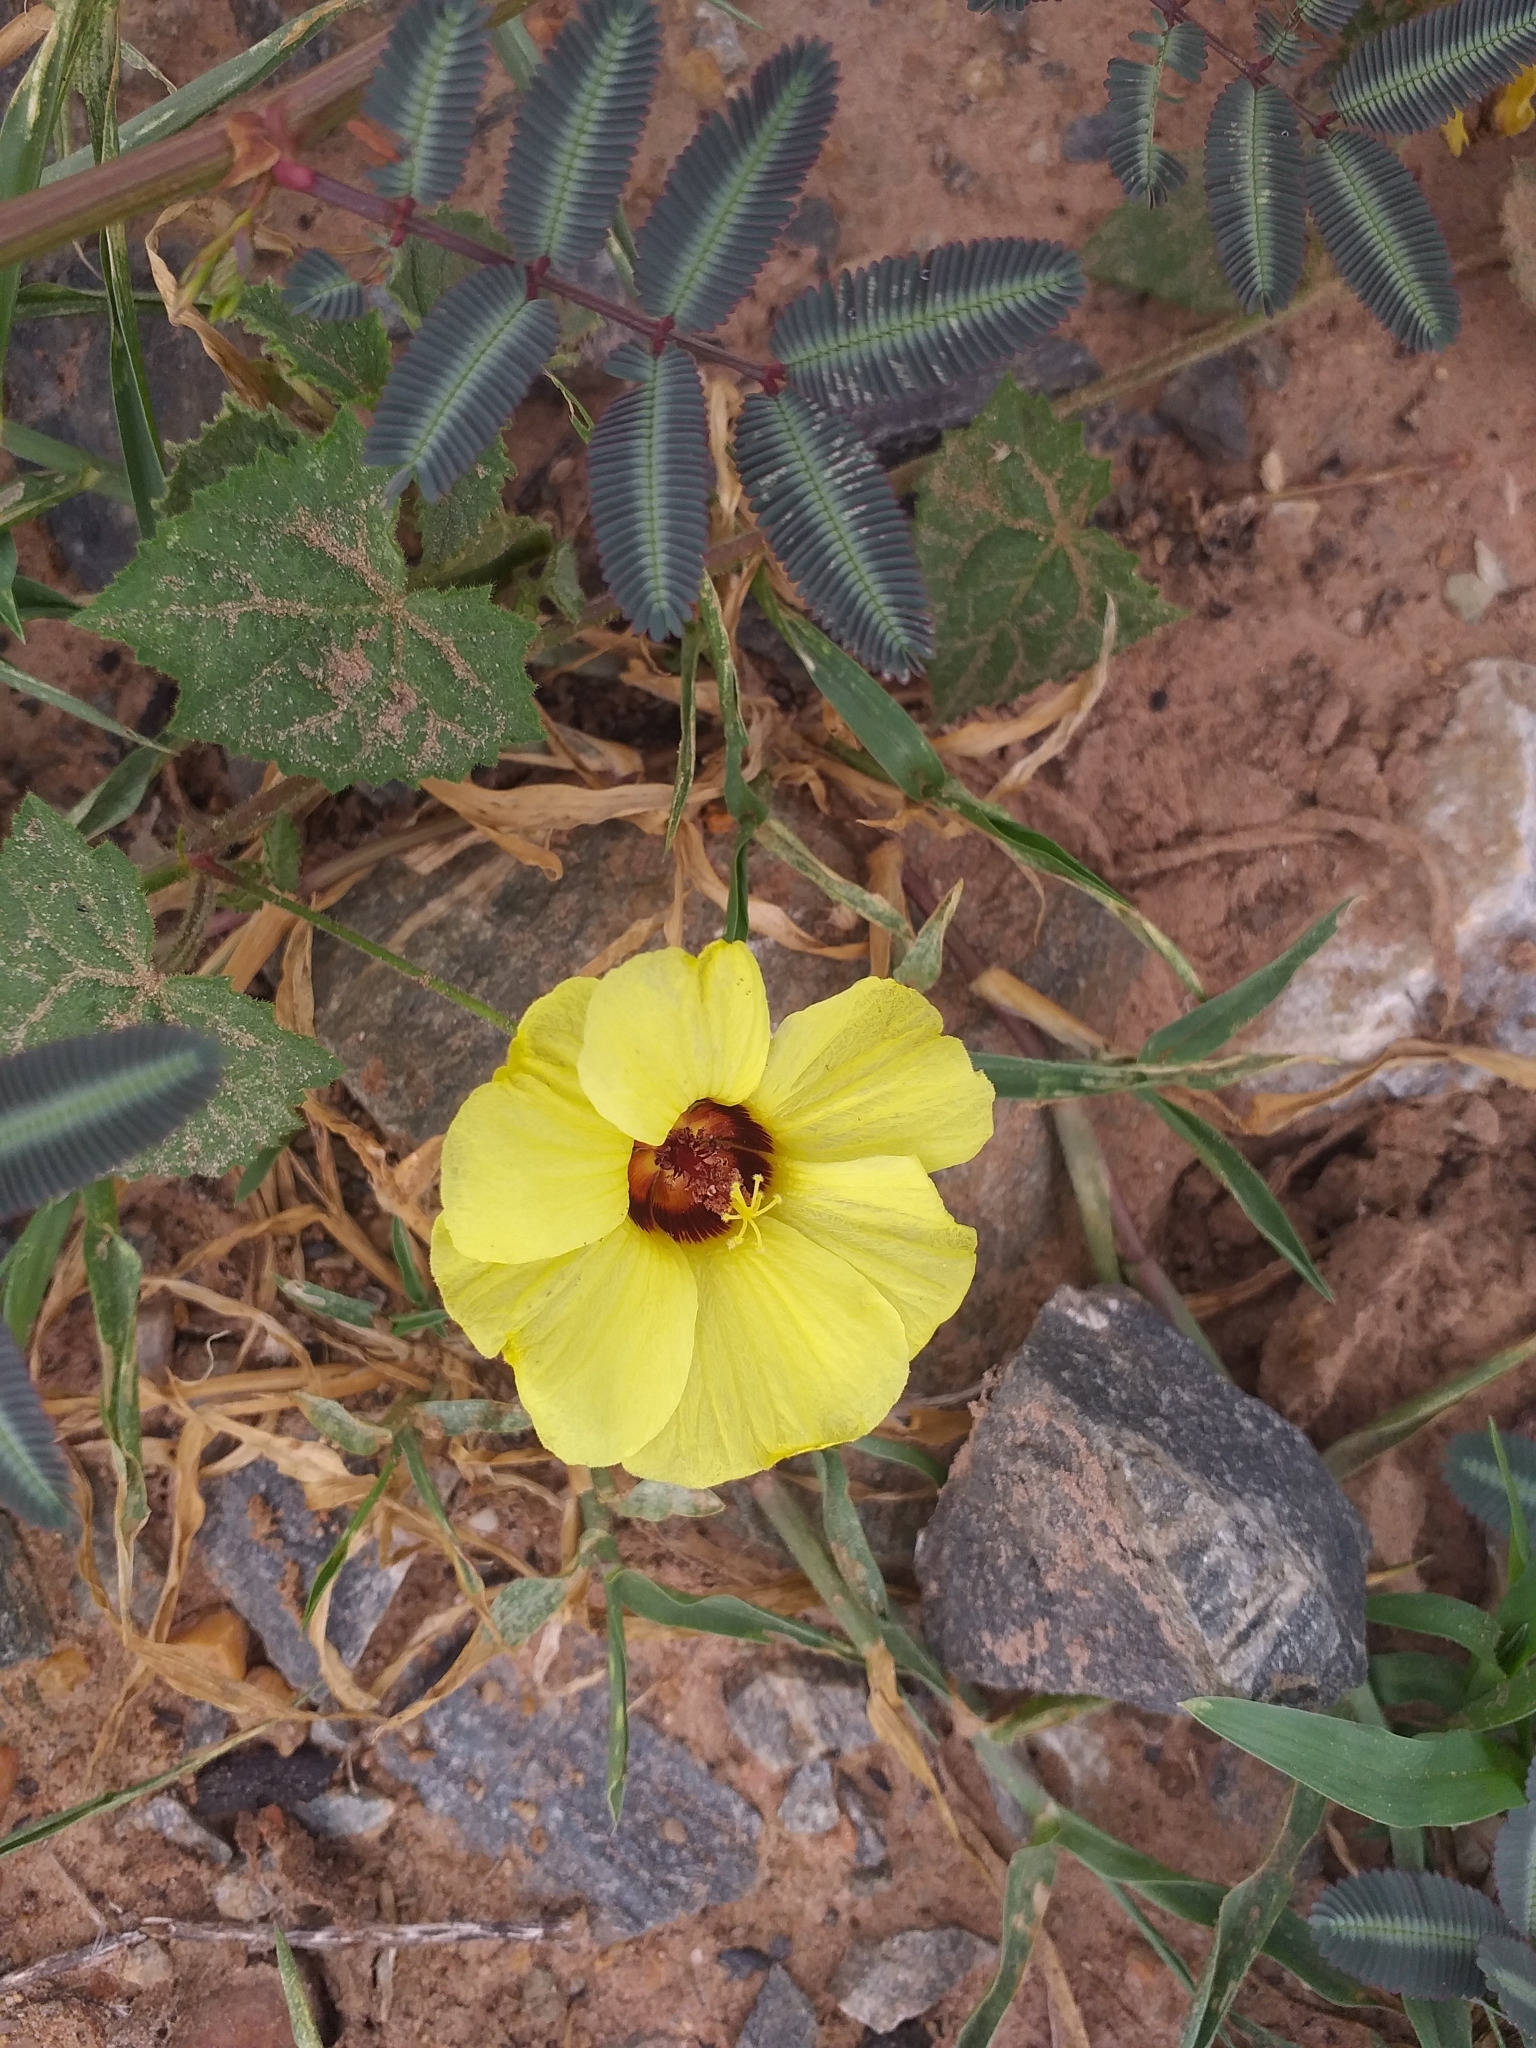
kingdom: Plantae
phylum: Tracheophyta
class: Magnoliopsida
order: Malvales
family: Malvaceae
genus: Pavonia
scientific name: Pavonia cancellata
